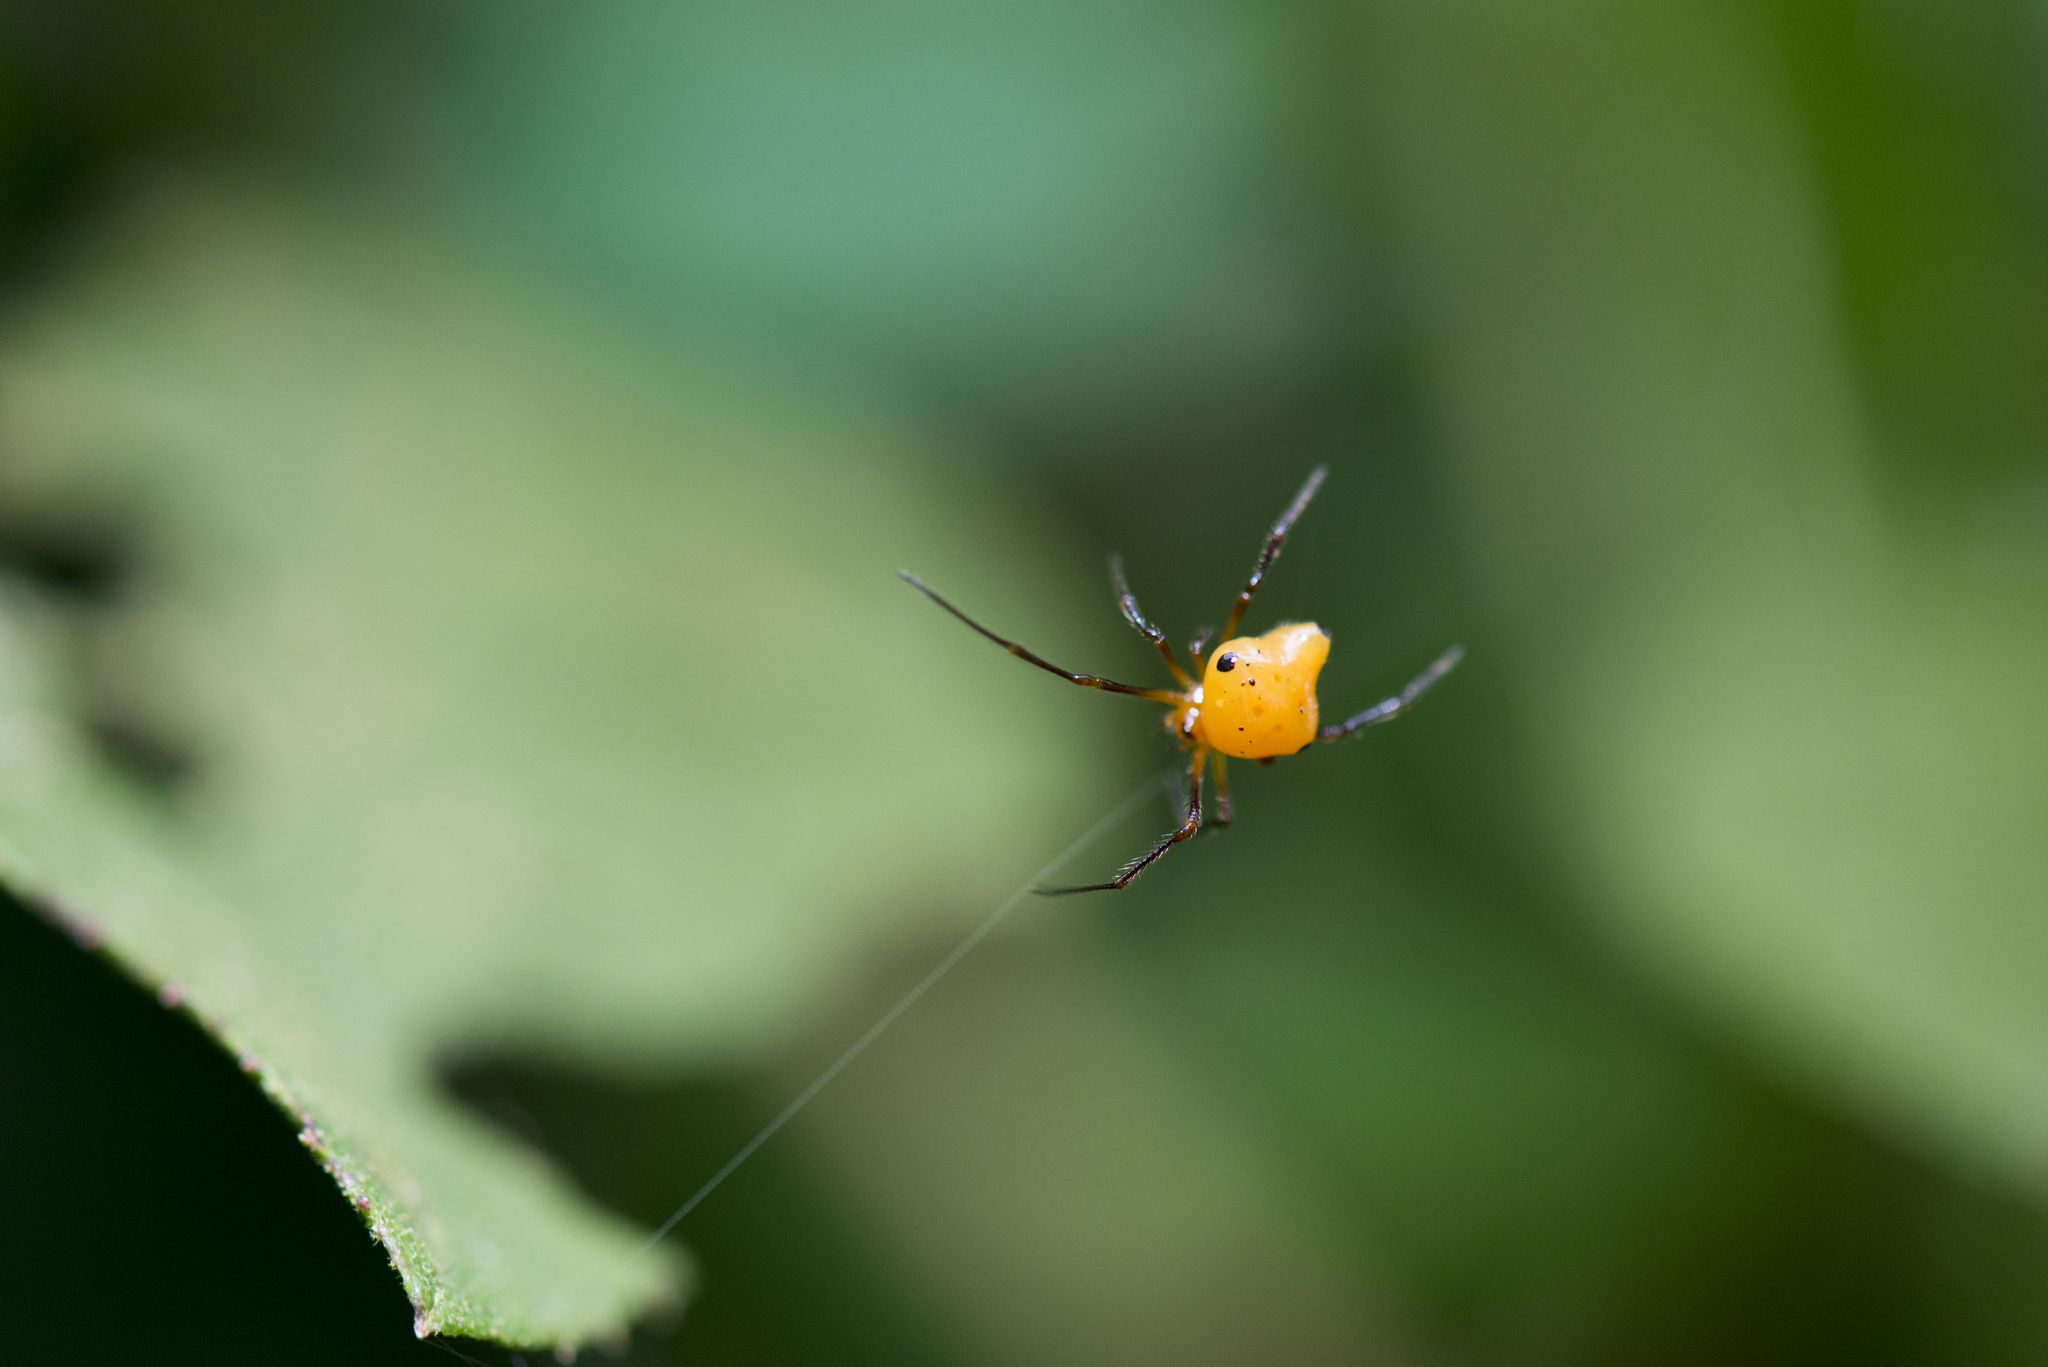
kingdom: Animalia
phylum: Arthropoda
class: Arachnida
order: Araneae
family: Theridiidae
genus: Chrysso
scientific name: Chrysso trimaculata
